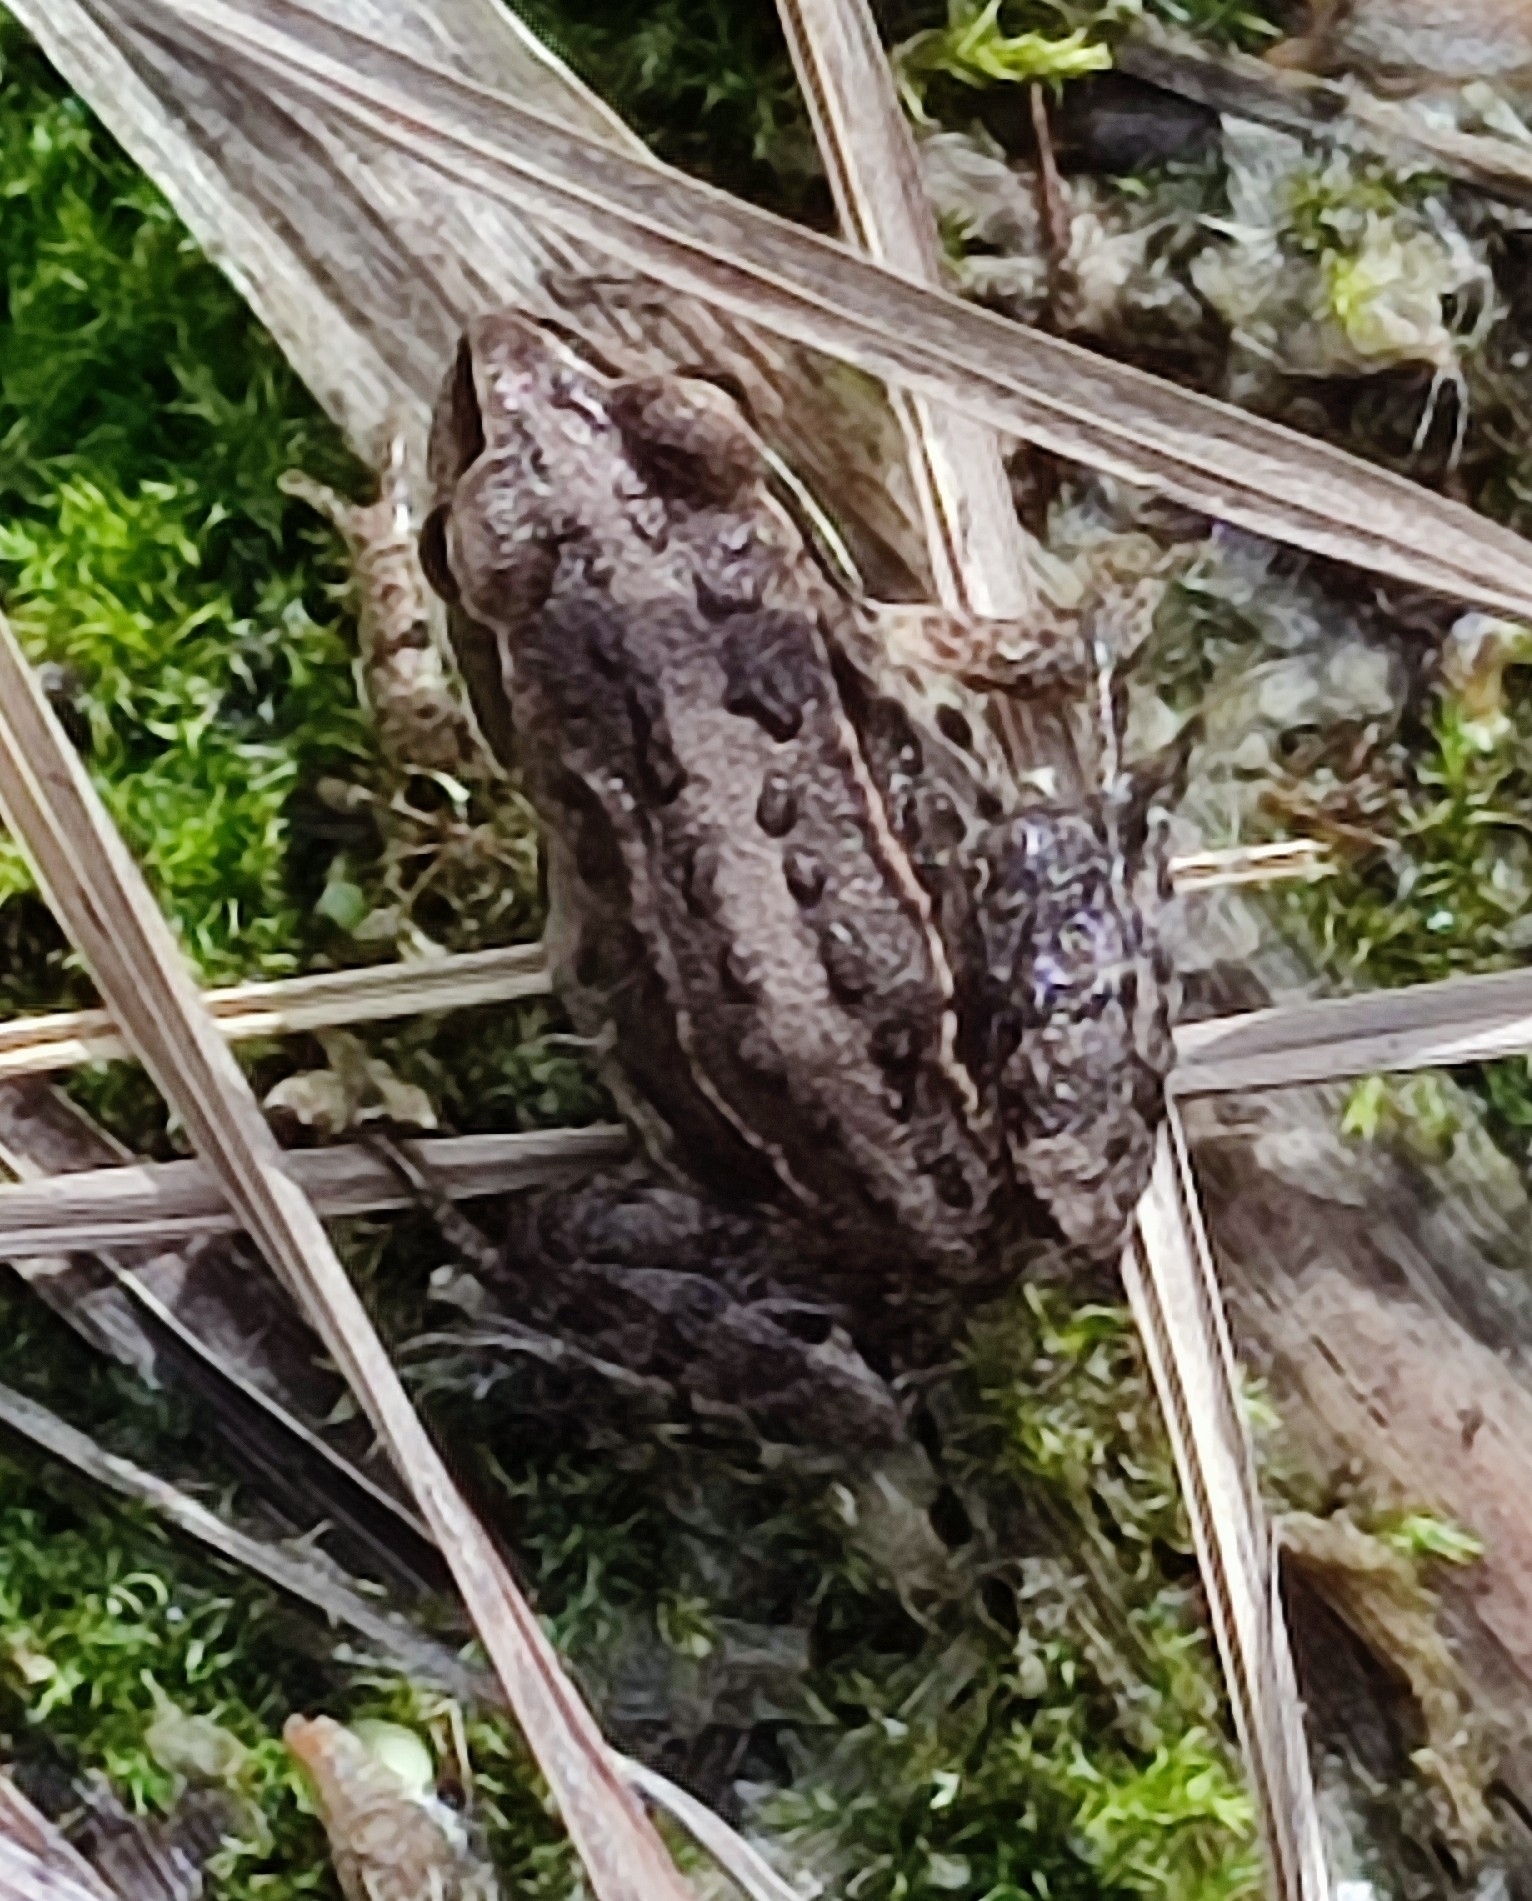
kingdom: Animalia
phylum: Chordata
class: Amphibia
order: Anura
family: Ranidae
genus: Rana
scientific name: Rana arvalis
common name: Moor frog
